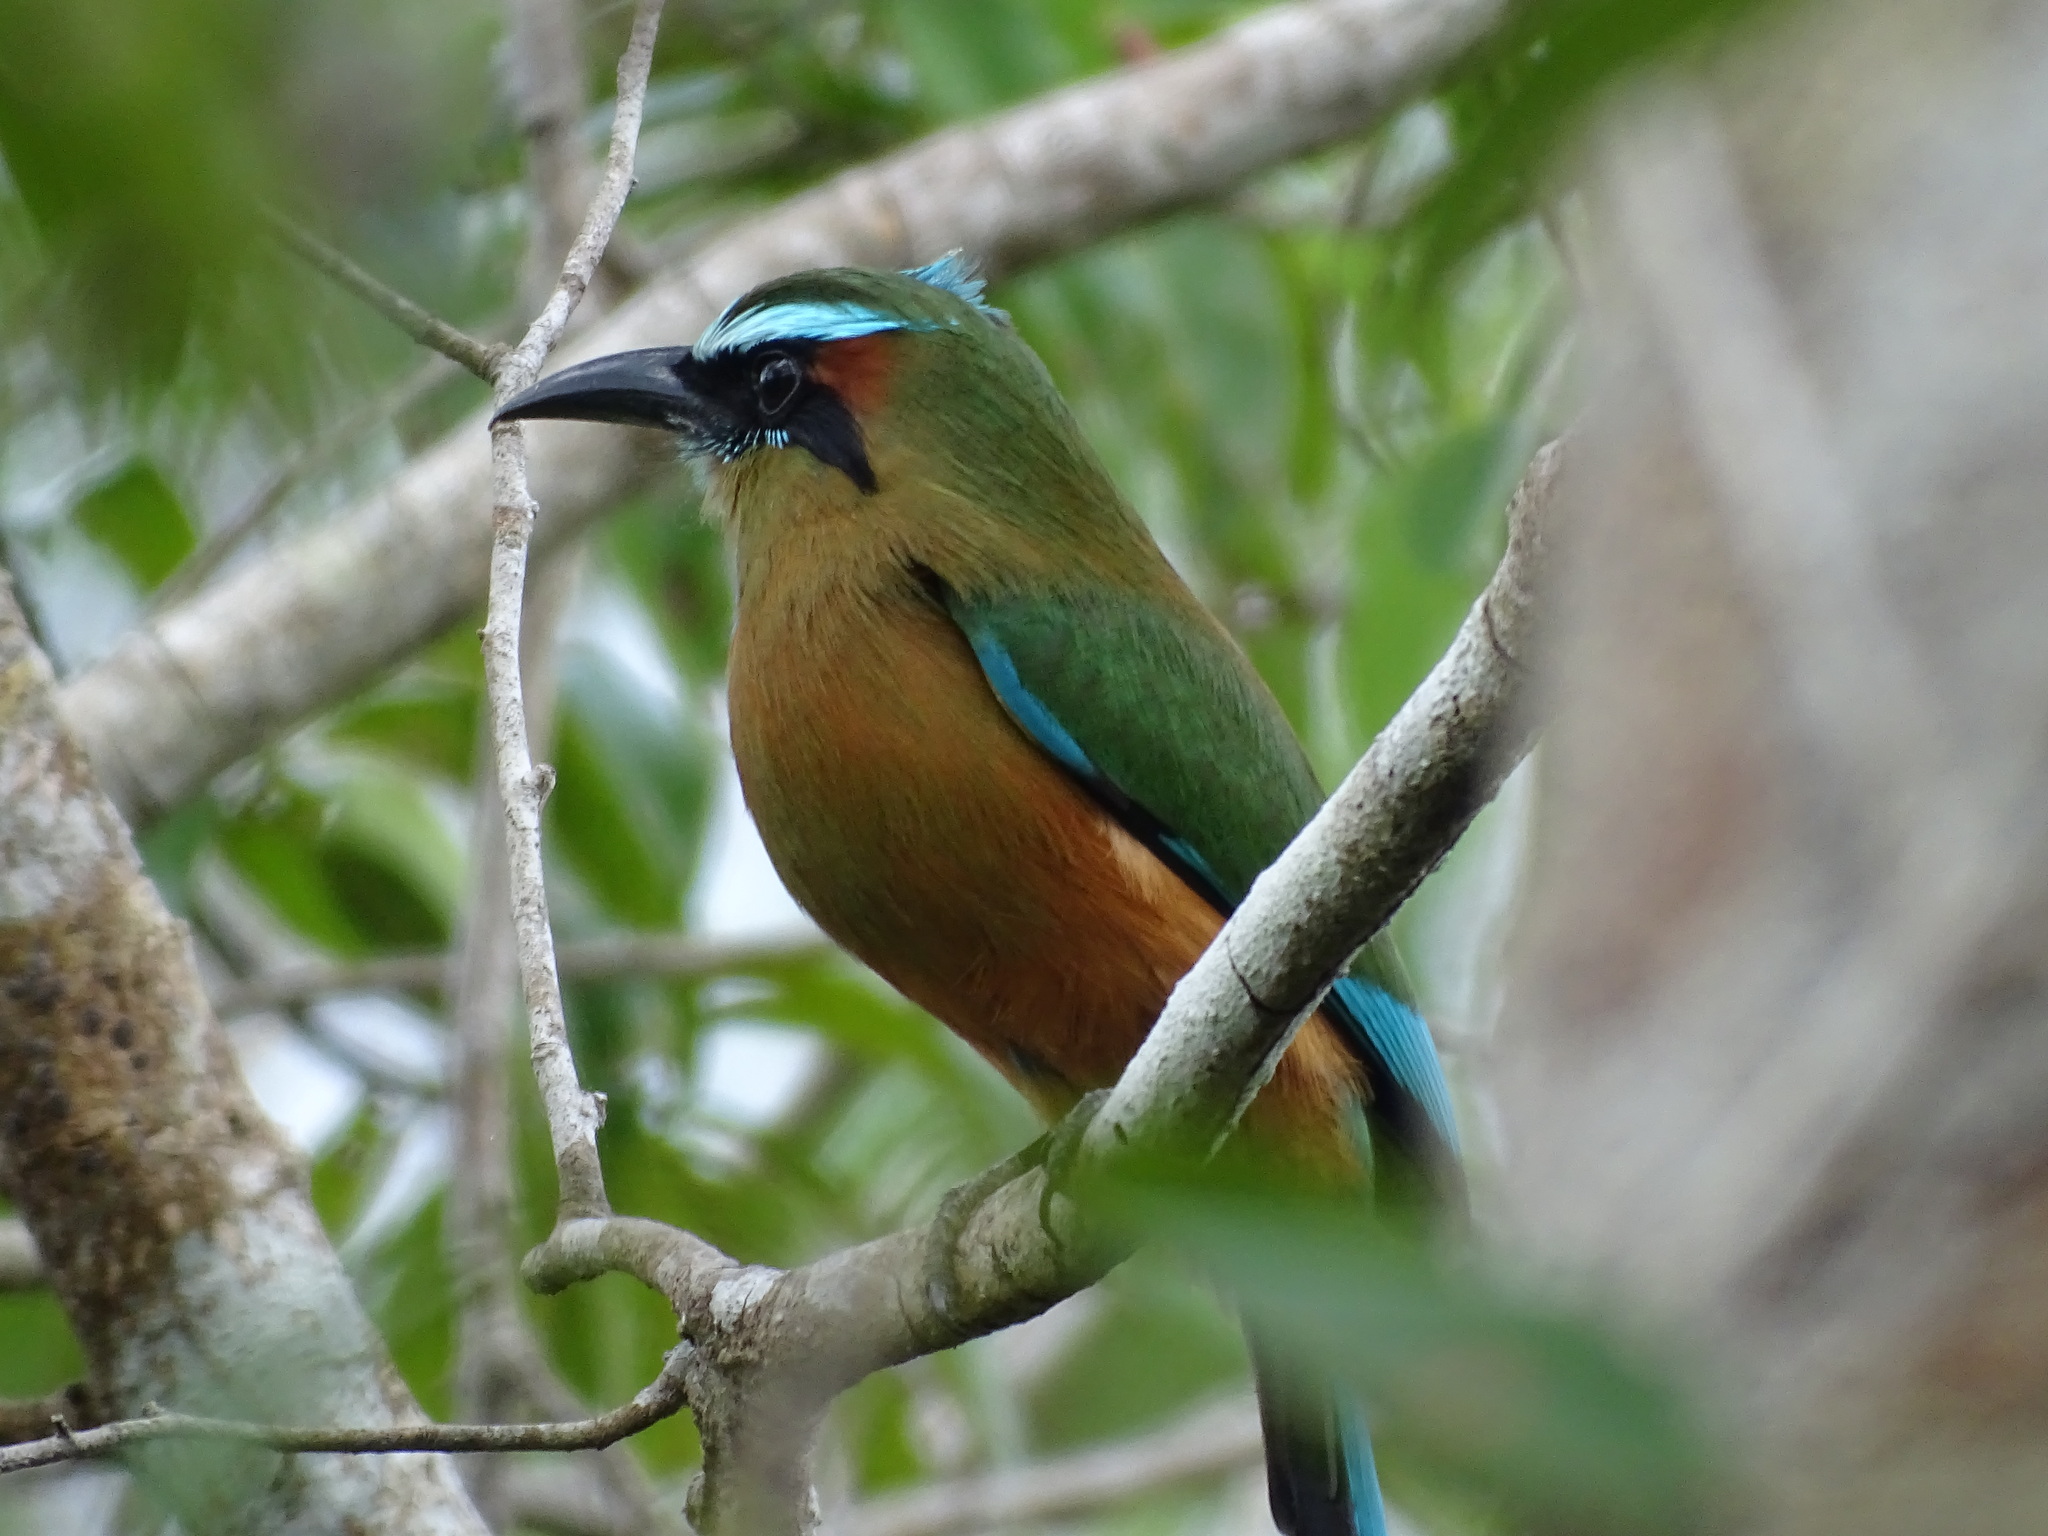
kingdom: Animalia
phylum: Chordata
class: Aves
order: Coraciiformes
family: Momotidae
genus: Eumomota
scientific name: Eumomota superciliosa
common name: Turquoise-browed motmot
